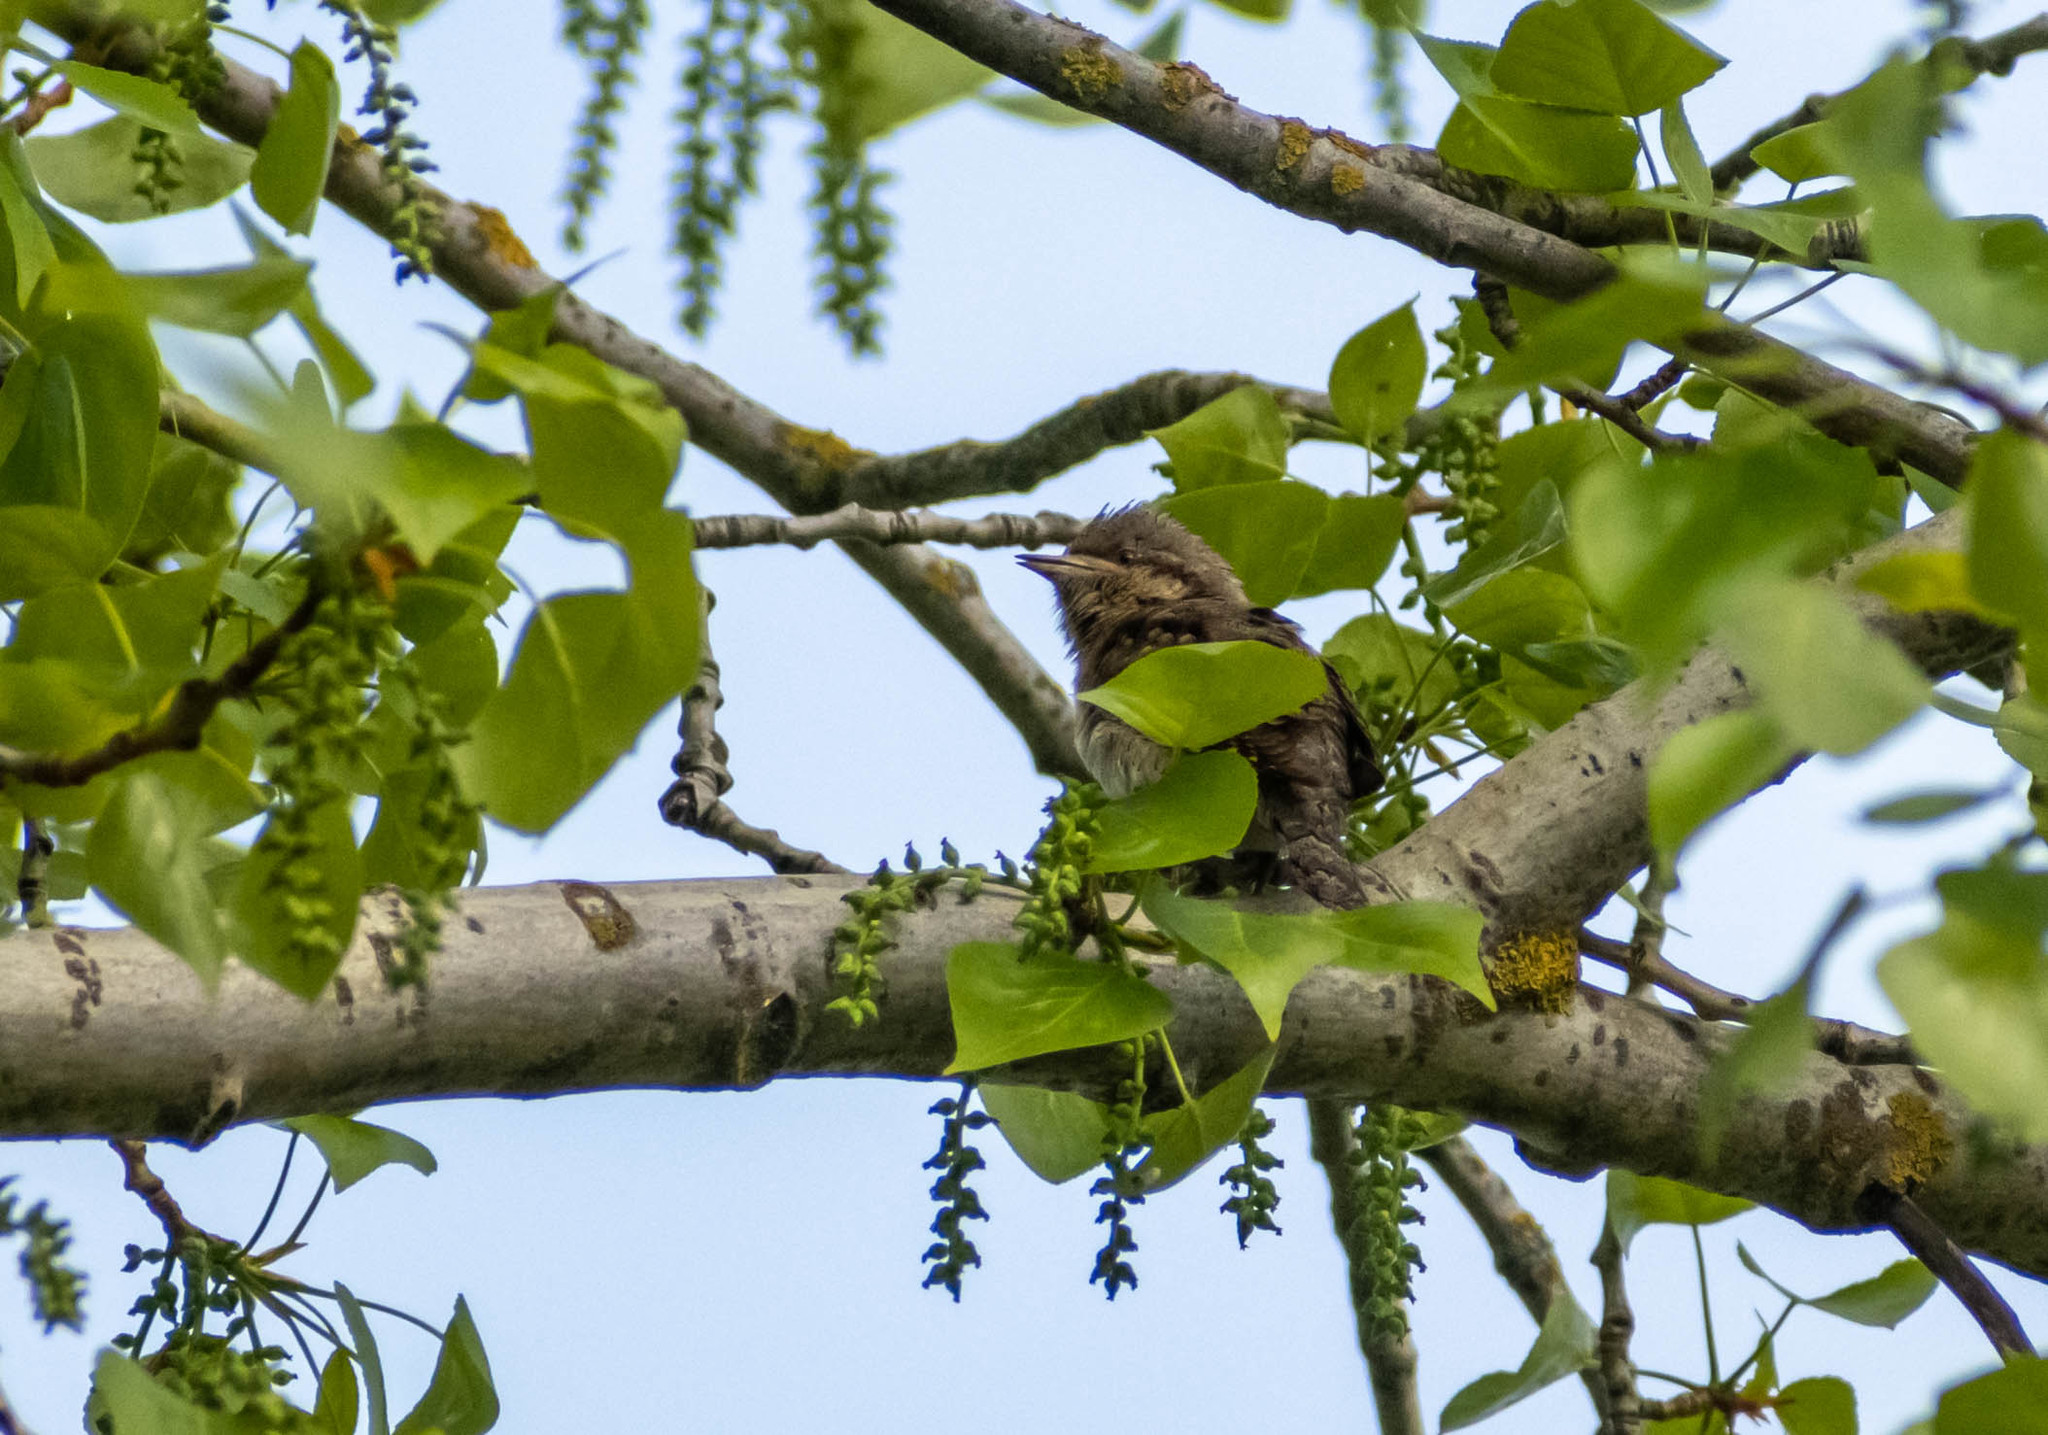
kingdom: Animalia
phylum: Chordata
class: Aves
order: Piciformes
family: Picidae
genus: Jynx
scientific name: Jynx torquilla
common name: Eurasian wryneck
